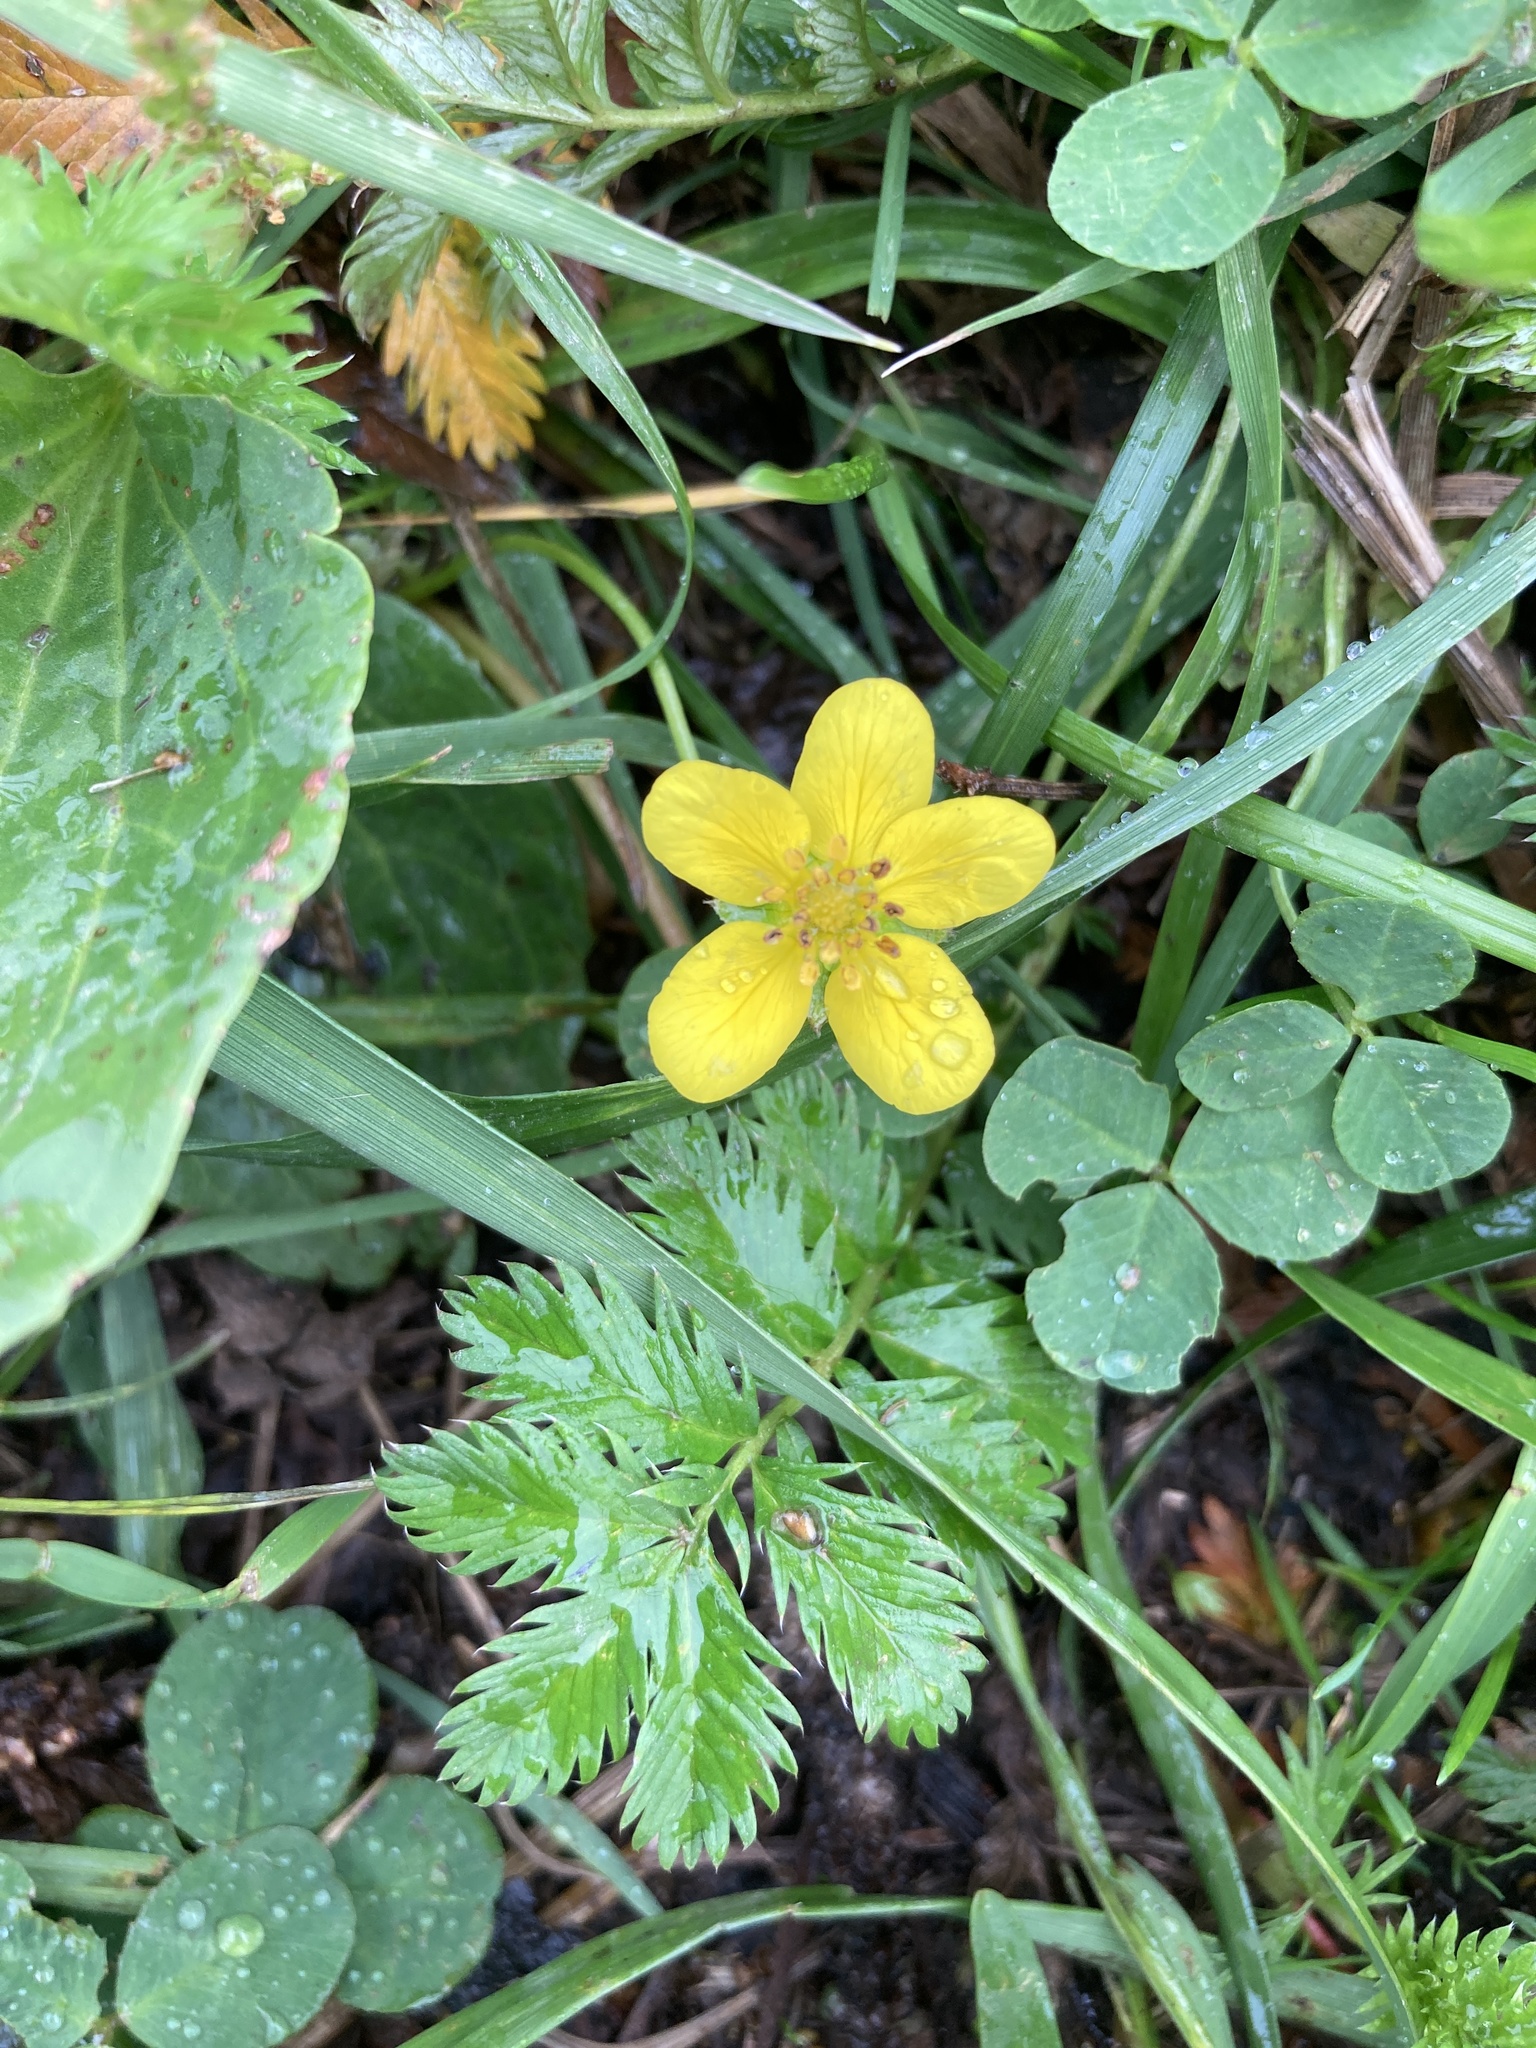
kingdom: Plantae
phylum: Tracheophyta
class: Magnoliopsida
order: Rosales
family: Rosaceae
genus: Argentina
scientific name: Argentina anserina
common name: Common silverweed
